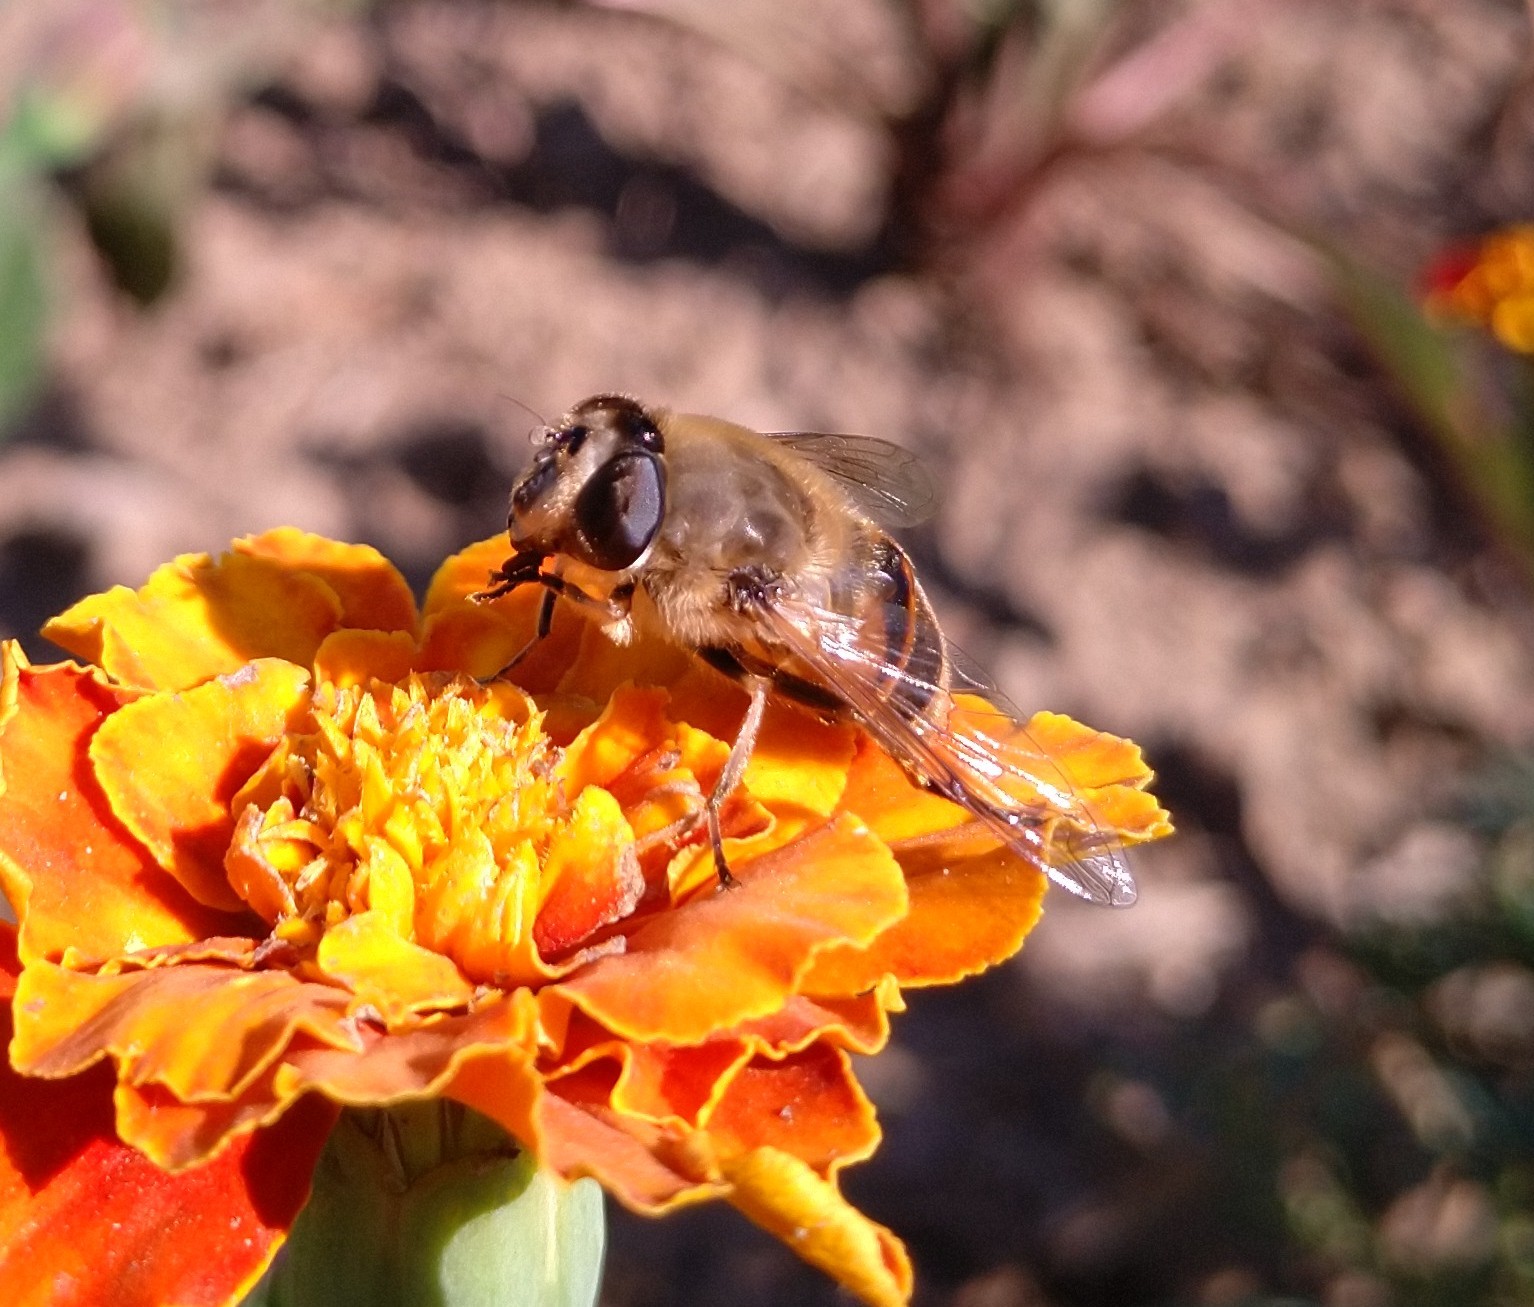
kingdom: Animalia
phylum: Arthropoda
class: Insecta
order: Diptera
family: Syrphidae
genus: Eristalis
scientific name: Eristalis tenax
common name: Drone fly
